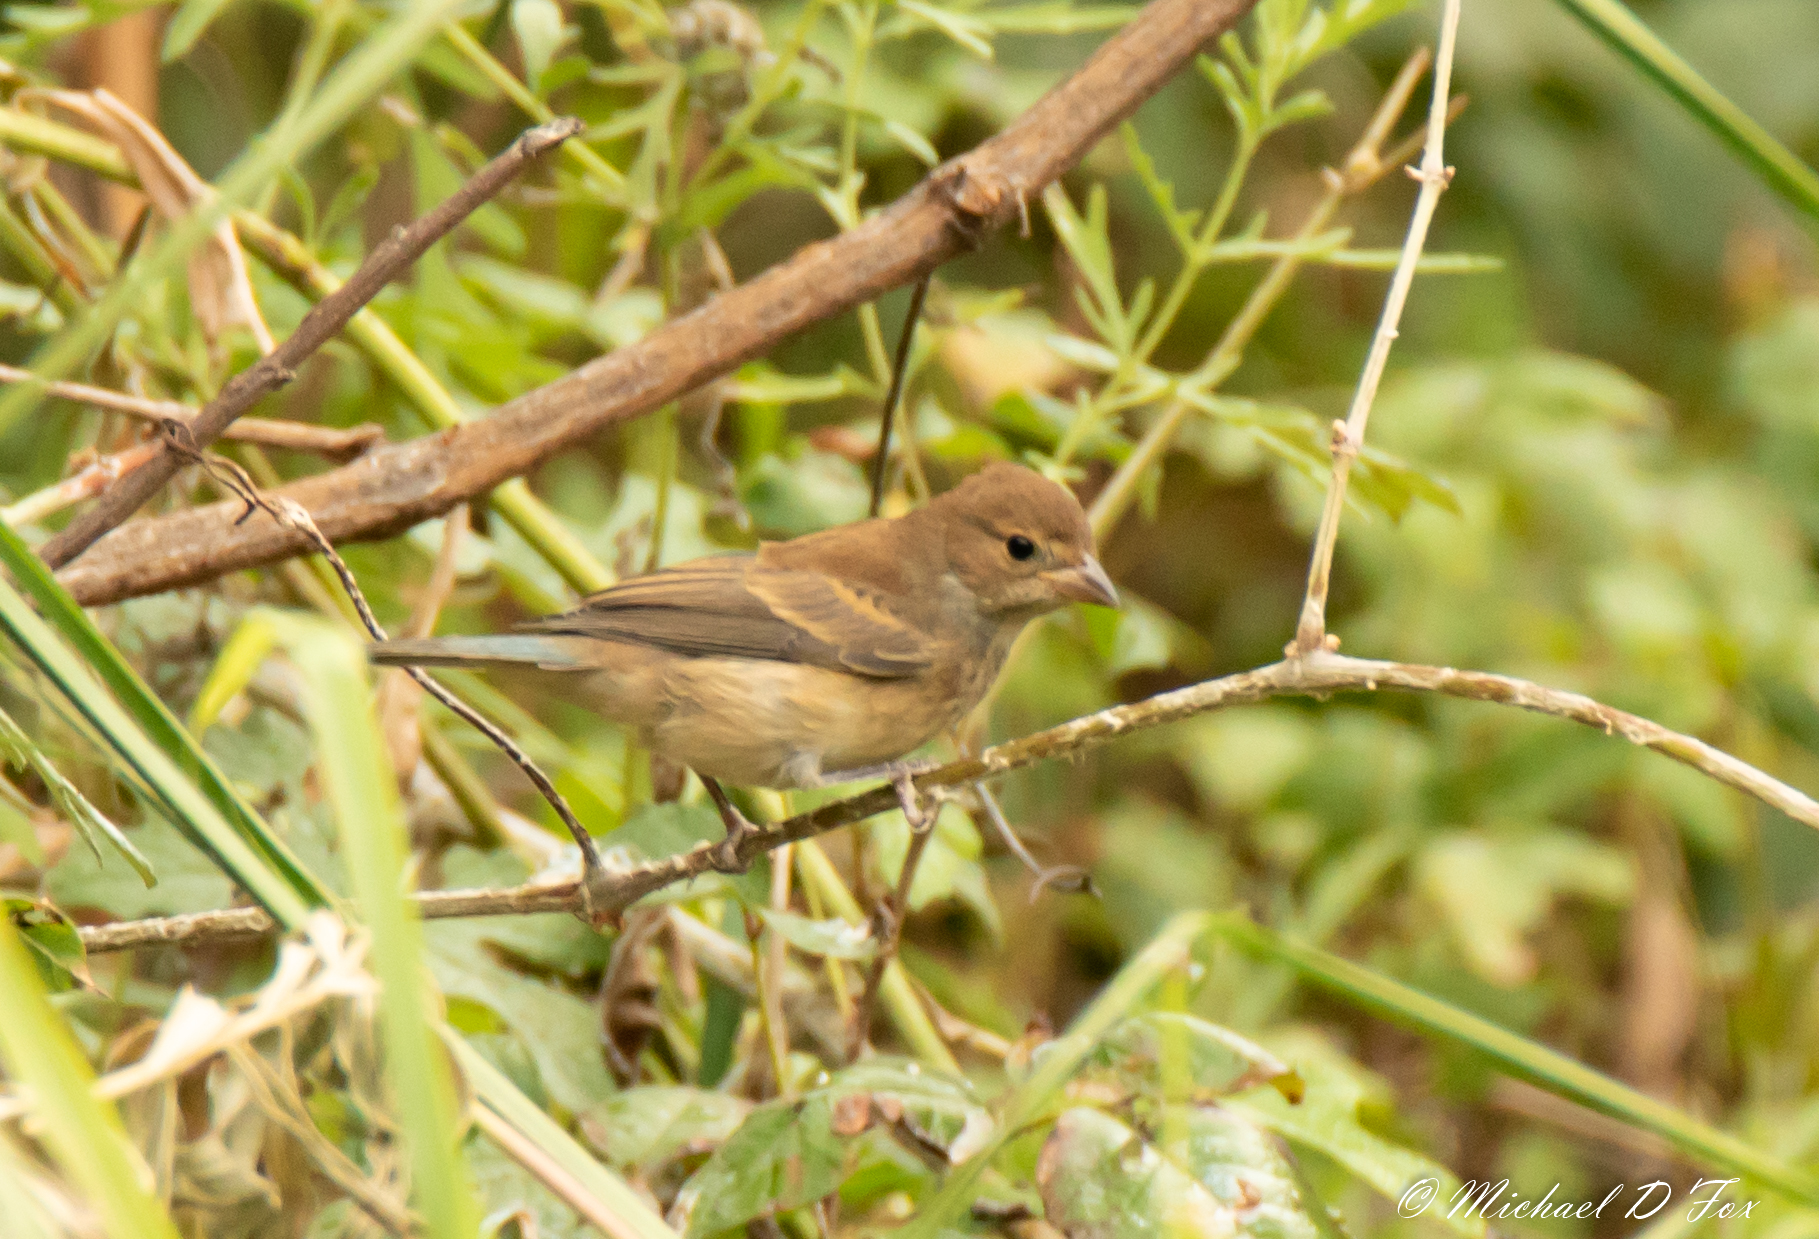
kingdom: Animalia
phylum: Chordata
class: Aves
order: Passeriformes
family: Cardinalidae
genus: Passerina
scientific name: Passerina cyanea
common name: Indigo bunting
